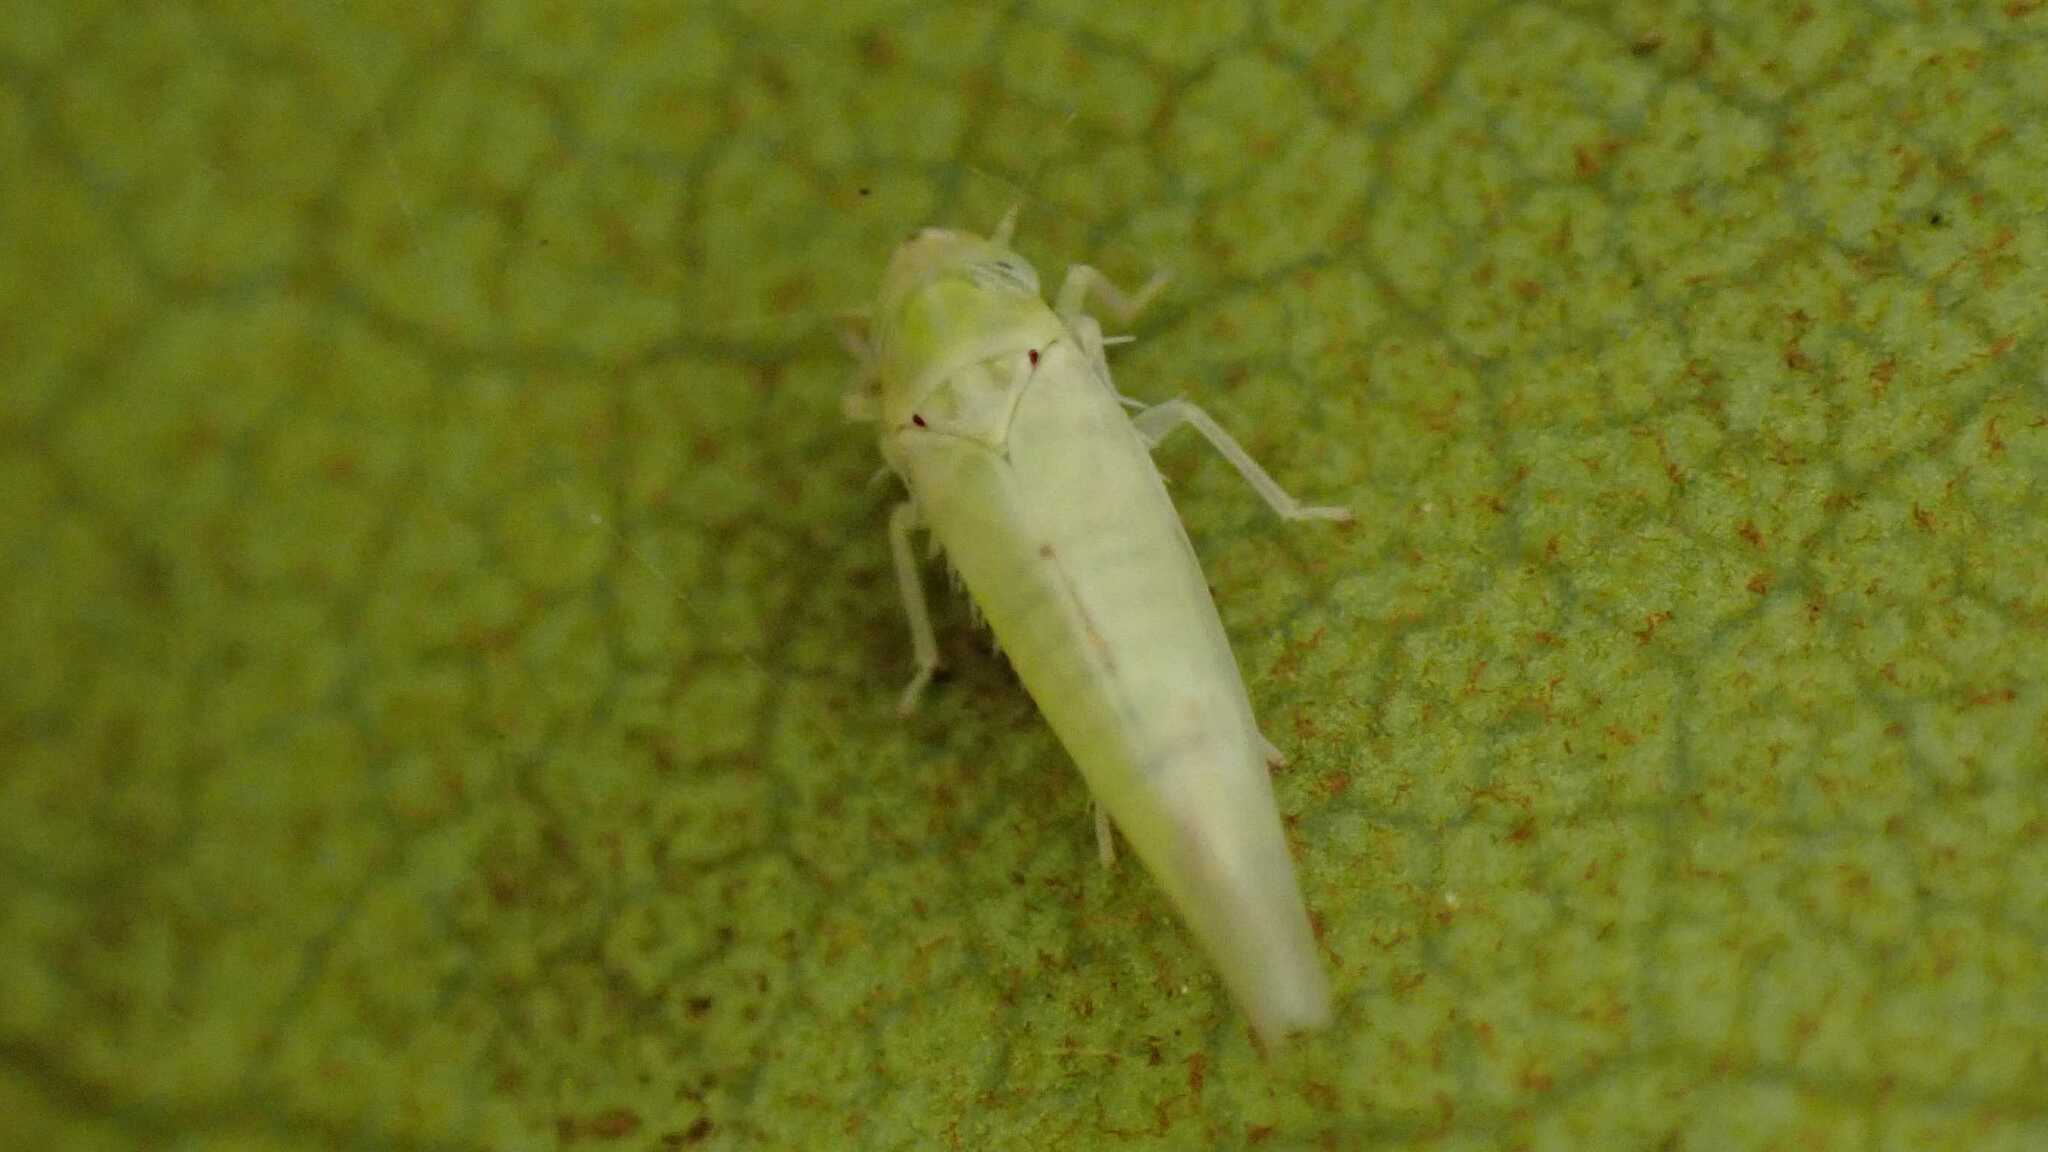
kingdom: Animalia
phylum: Arthropoda
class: Insecta
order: Hemiptera
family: Cicadellidae
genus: Zygina
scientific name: Zygina nivea
